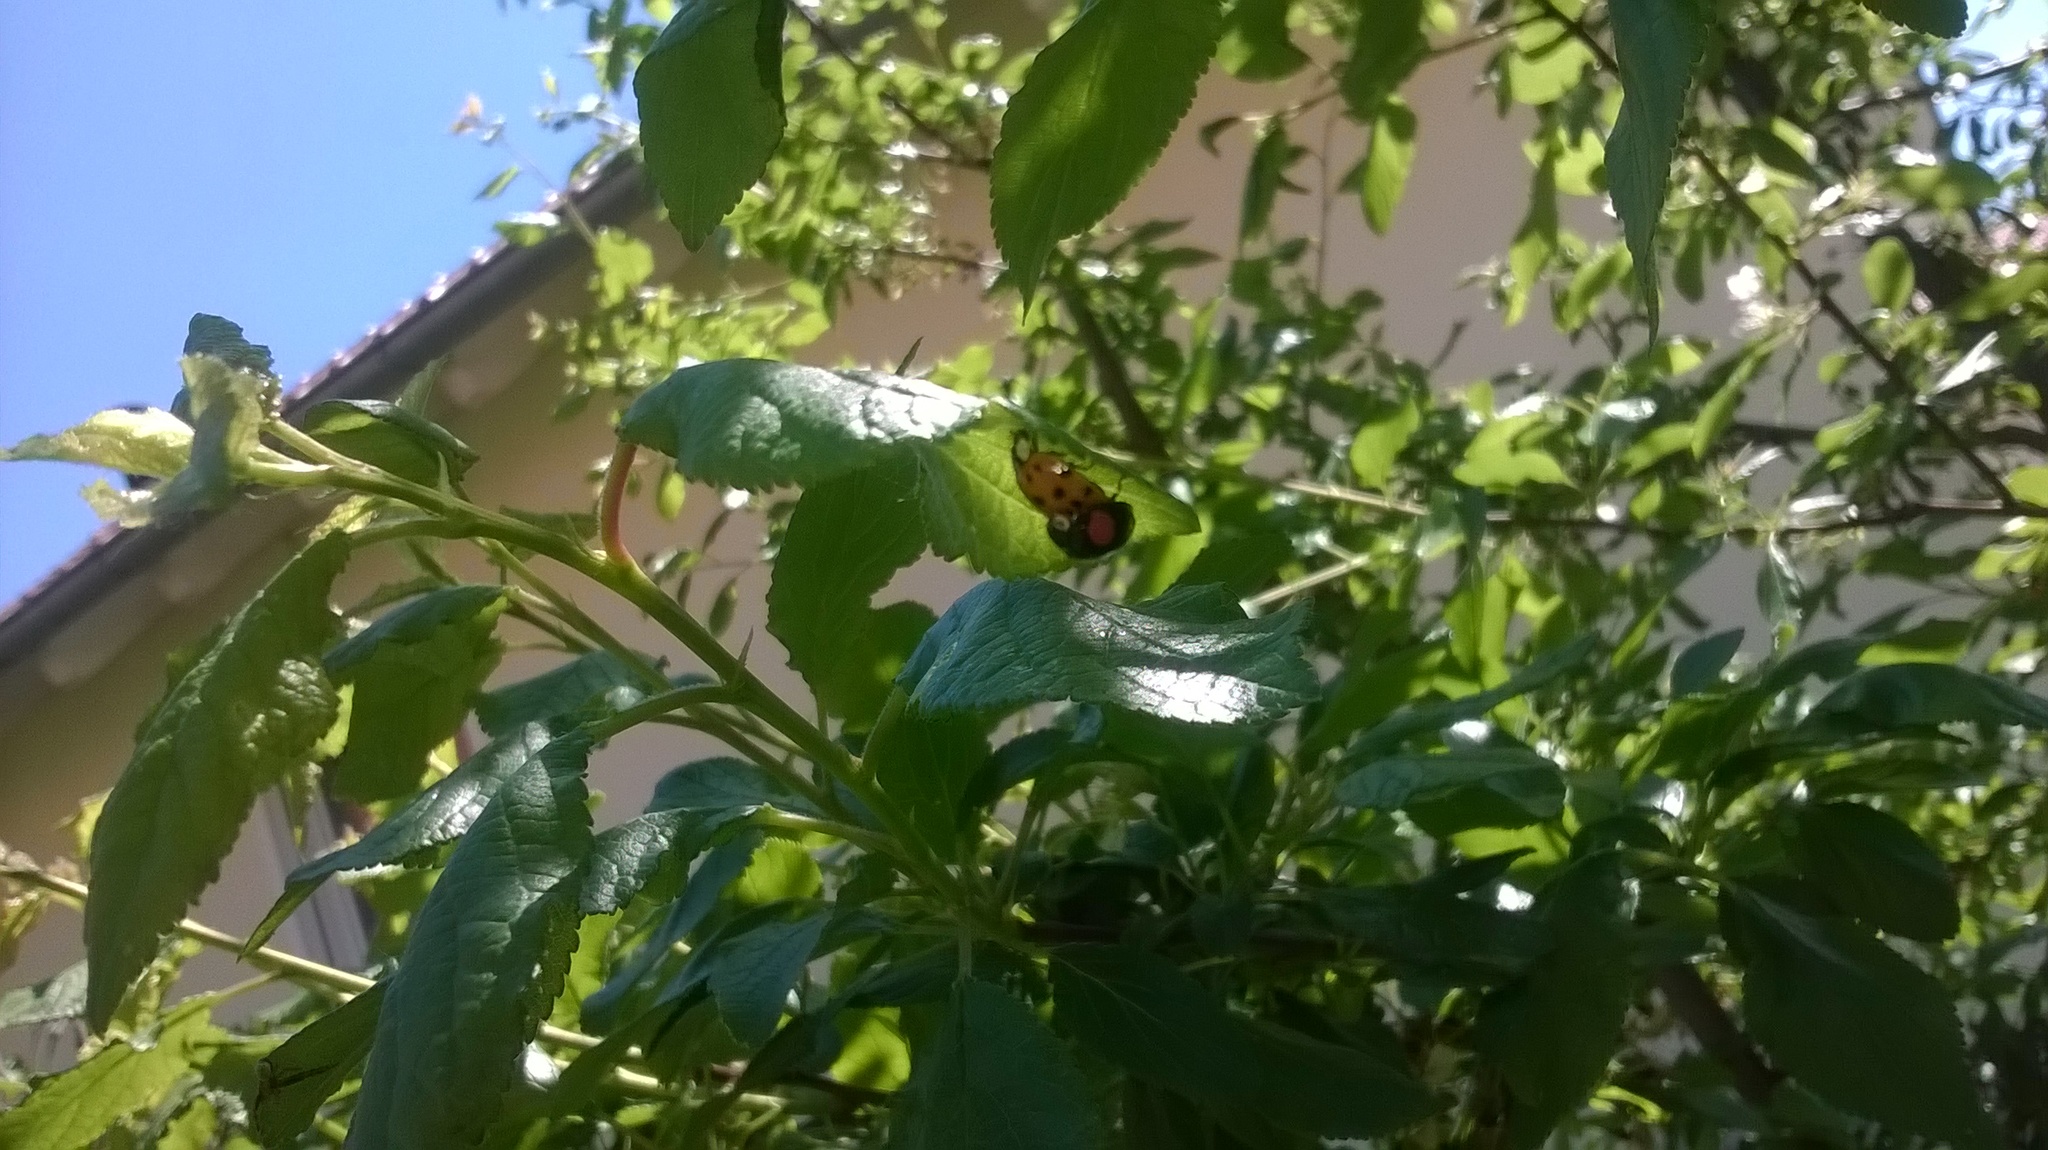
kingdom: Animalia
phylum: Arthropoda
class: Insecta
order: Coleoptera
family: Coccinellidae
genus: Harmonia
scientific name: Harmonia axyridis
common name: Harlequin ladybird
